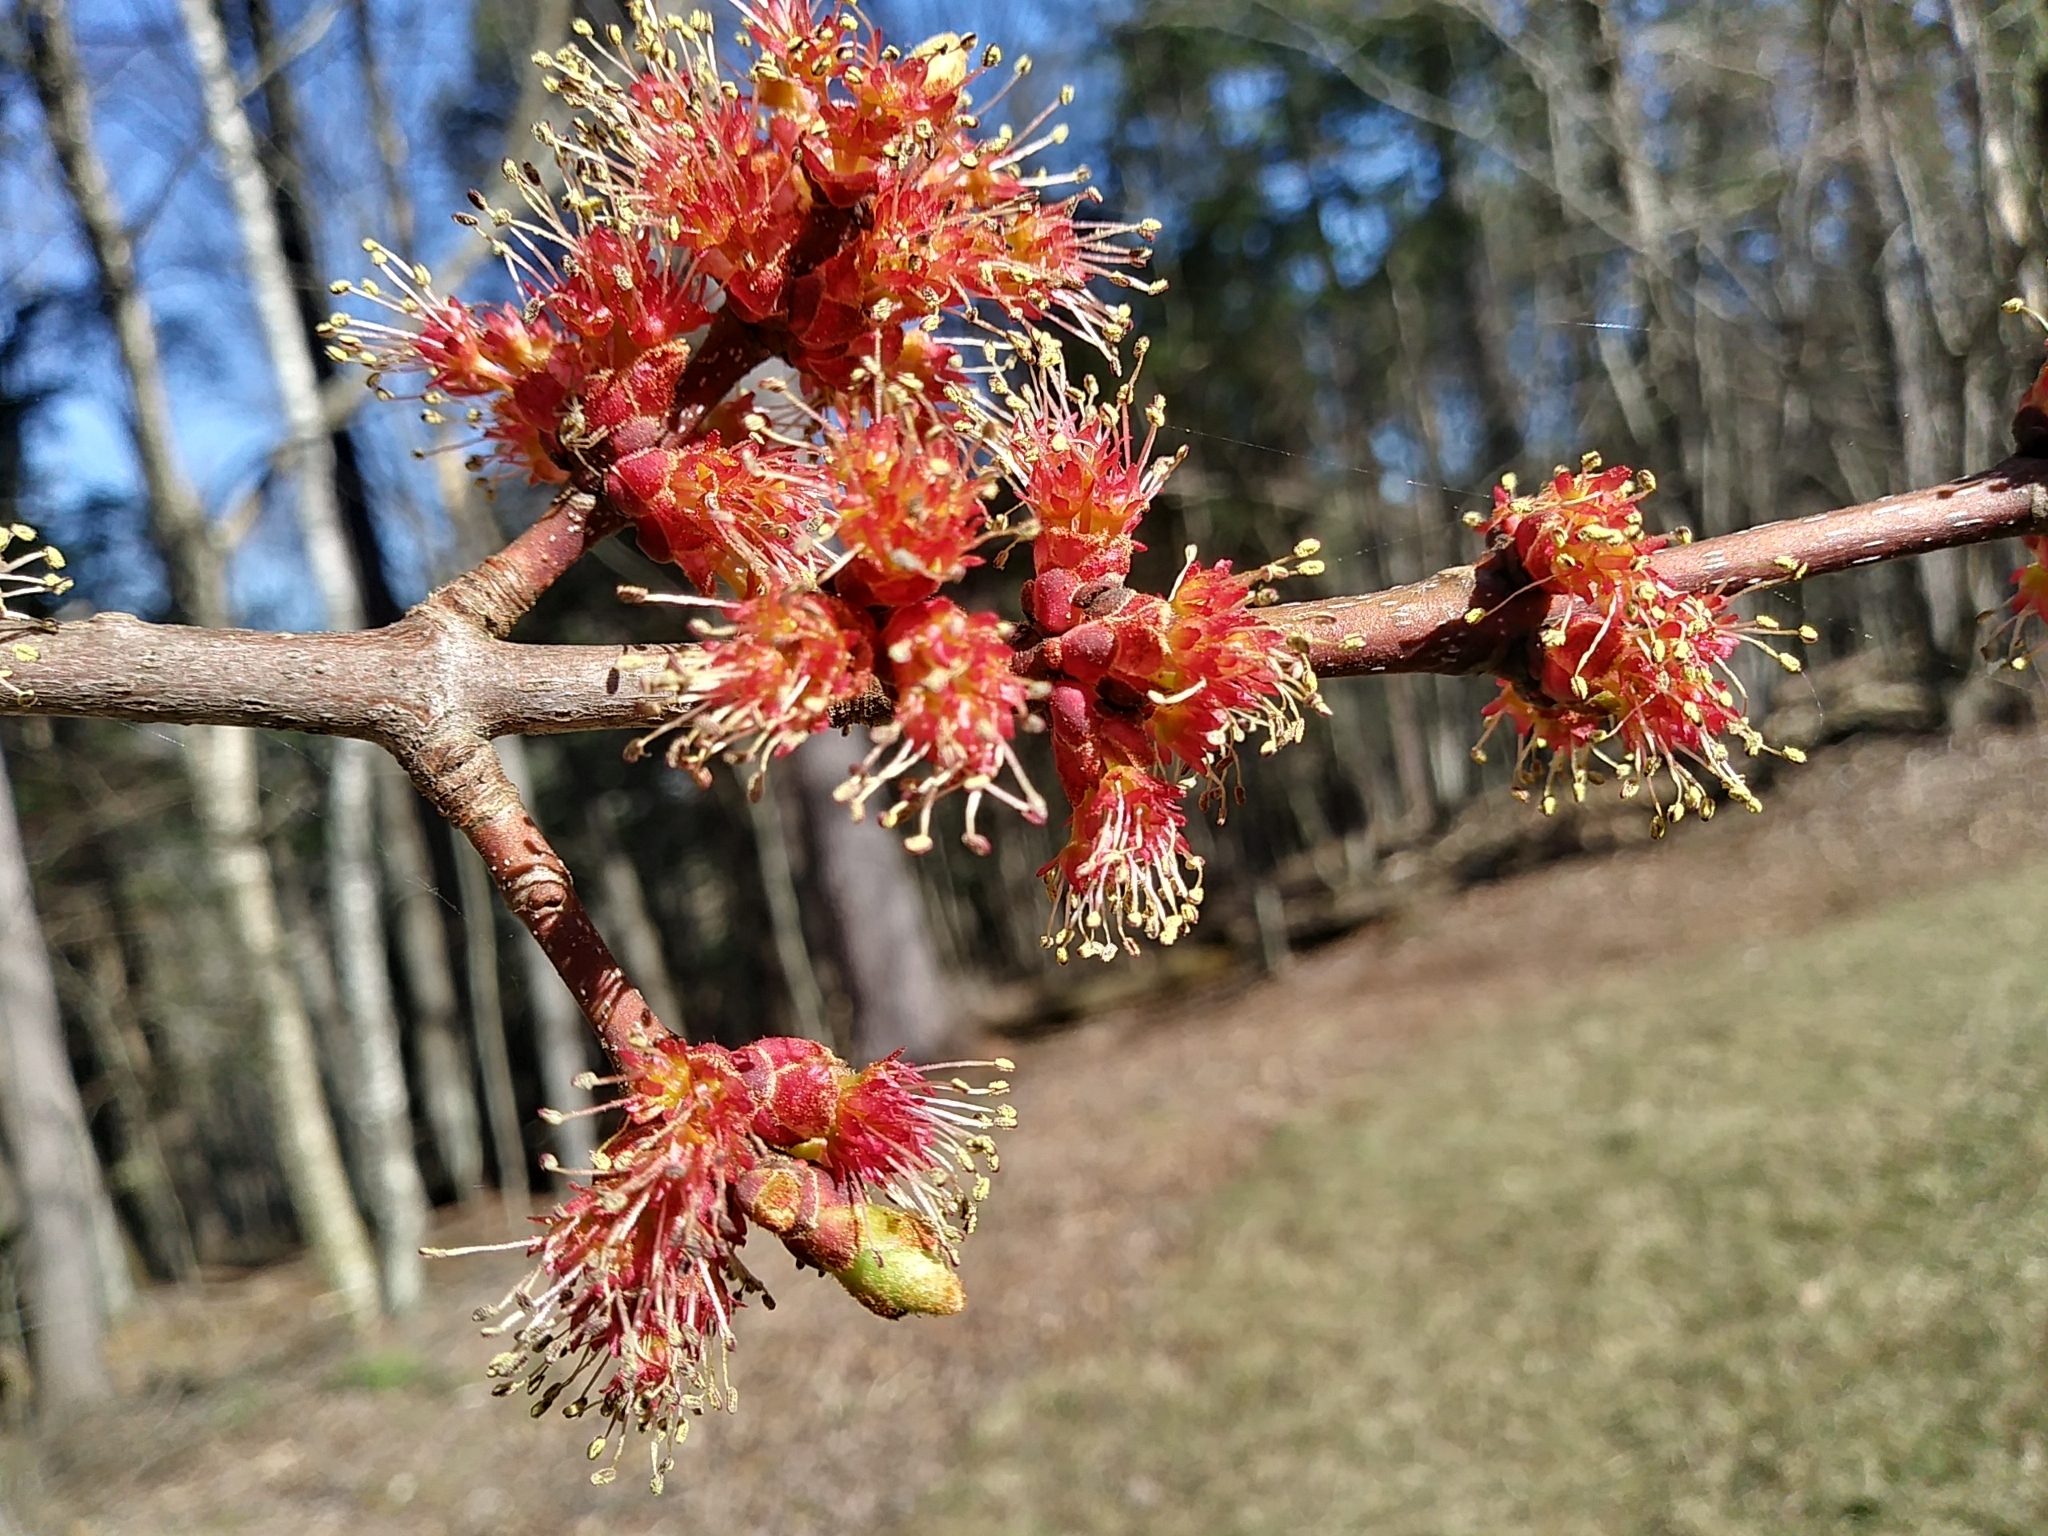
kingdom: Plantae
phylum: Tracheophyta
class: Magnoliopsida
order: Sapindales
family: Sapindaceae
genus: Acer
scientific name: Acer rubrum
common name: Red maple
